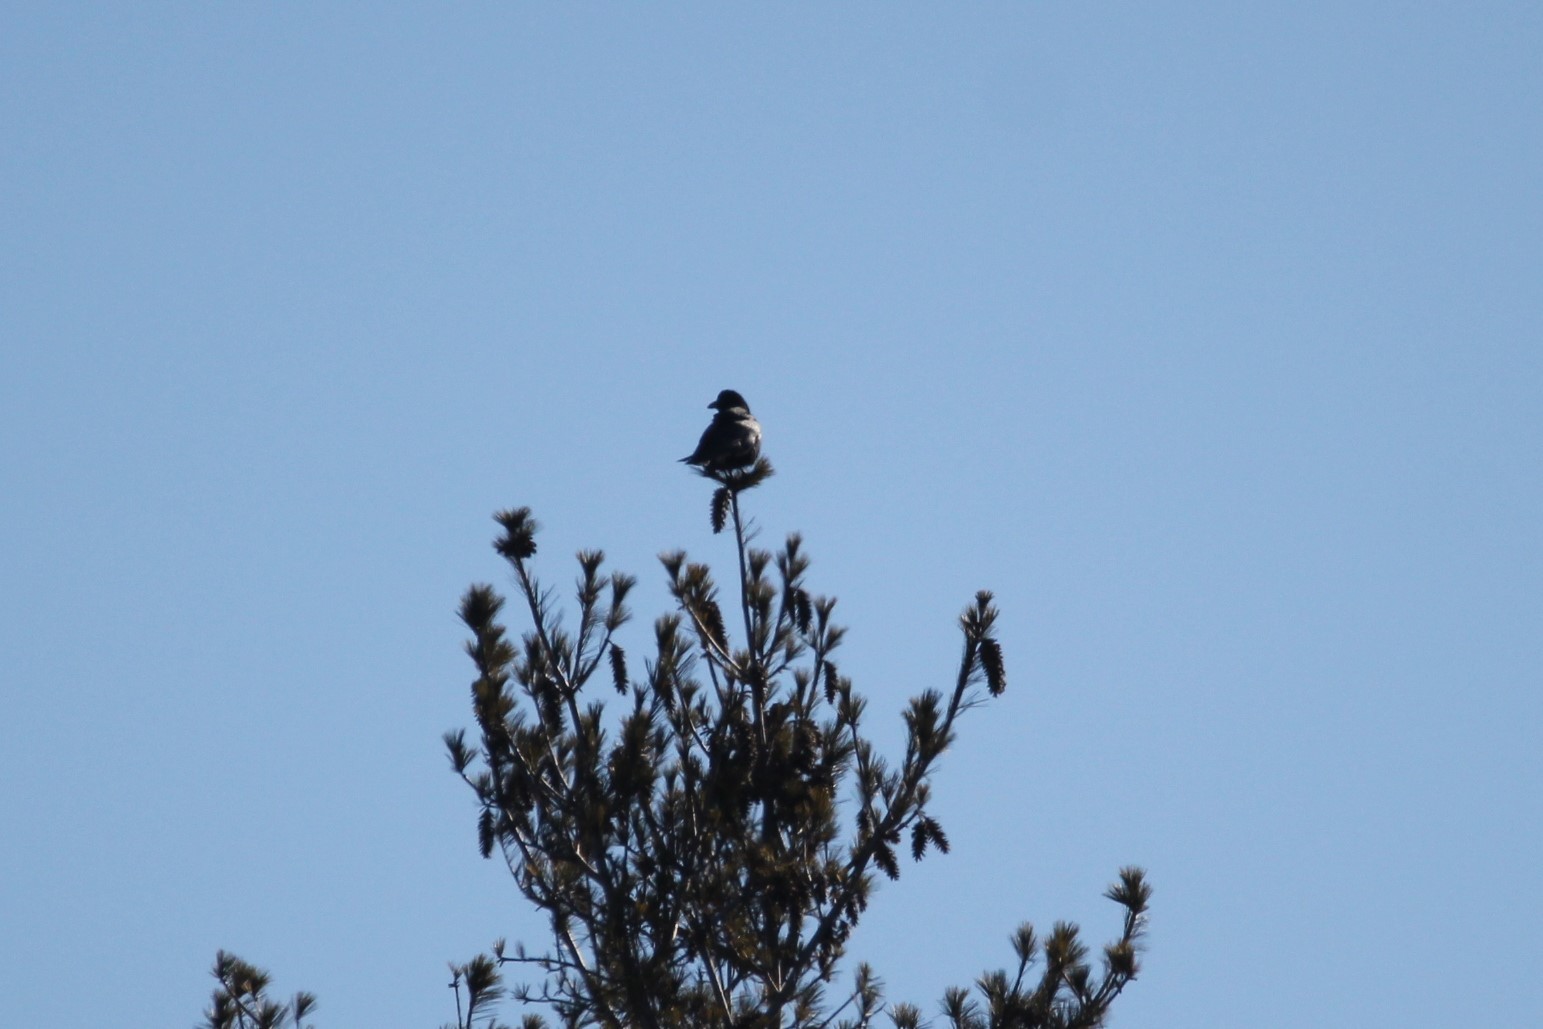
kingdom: Animalia
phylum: Chordata
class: Aves
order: Passeriformes
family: Corvidae
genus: Corvus
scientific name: Corvus brachyrhynchos
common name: American crow
